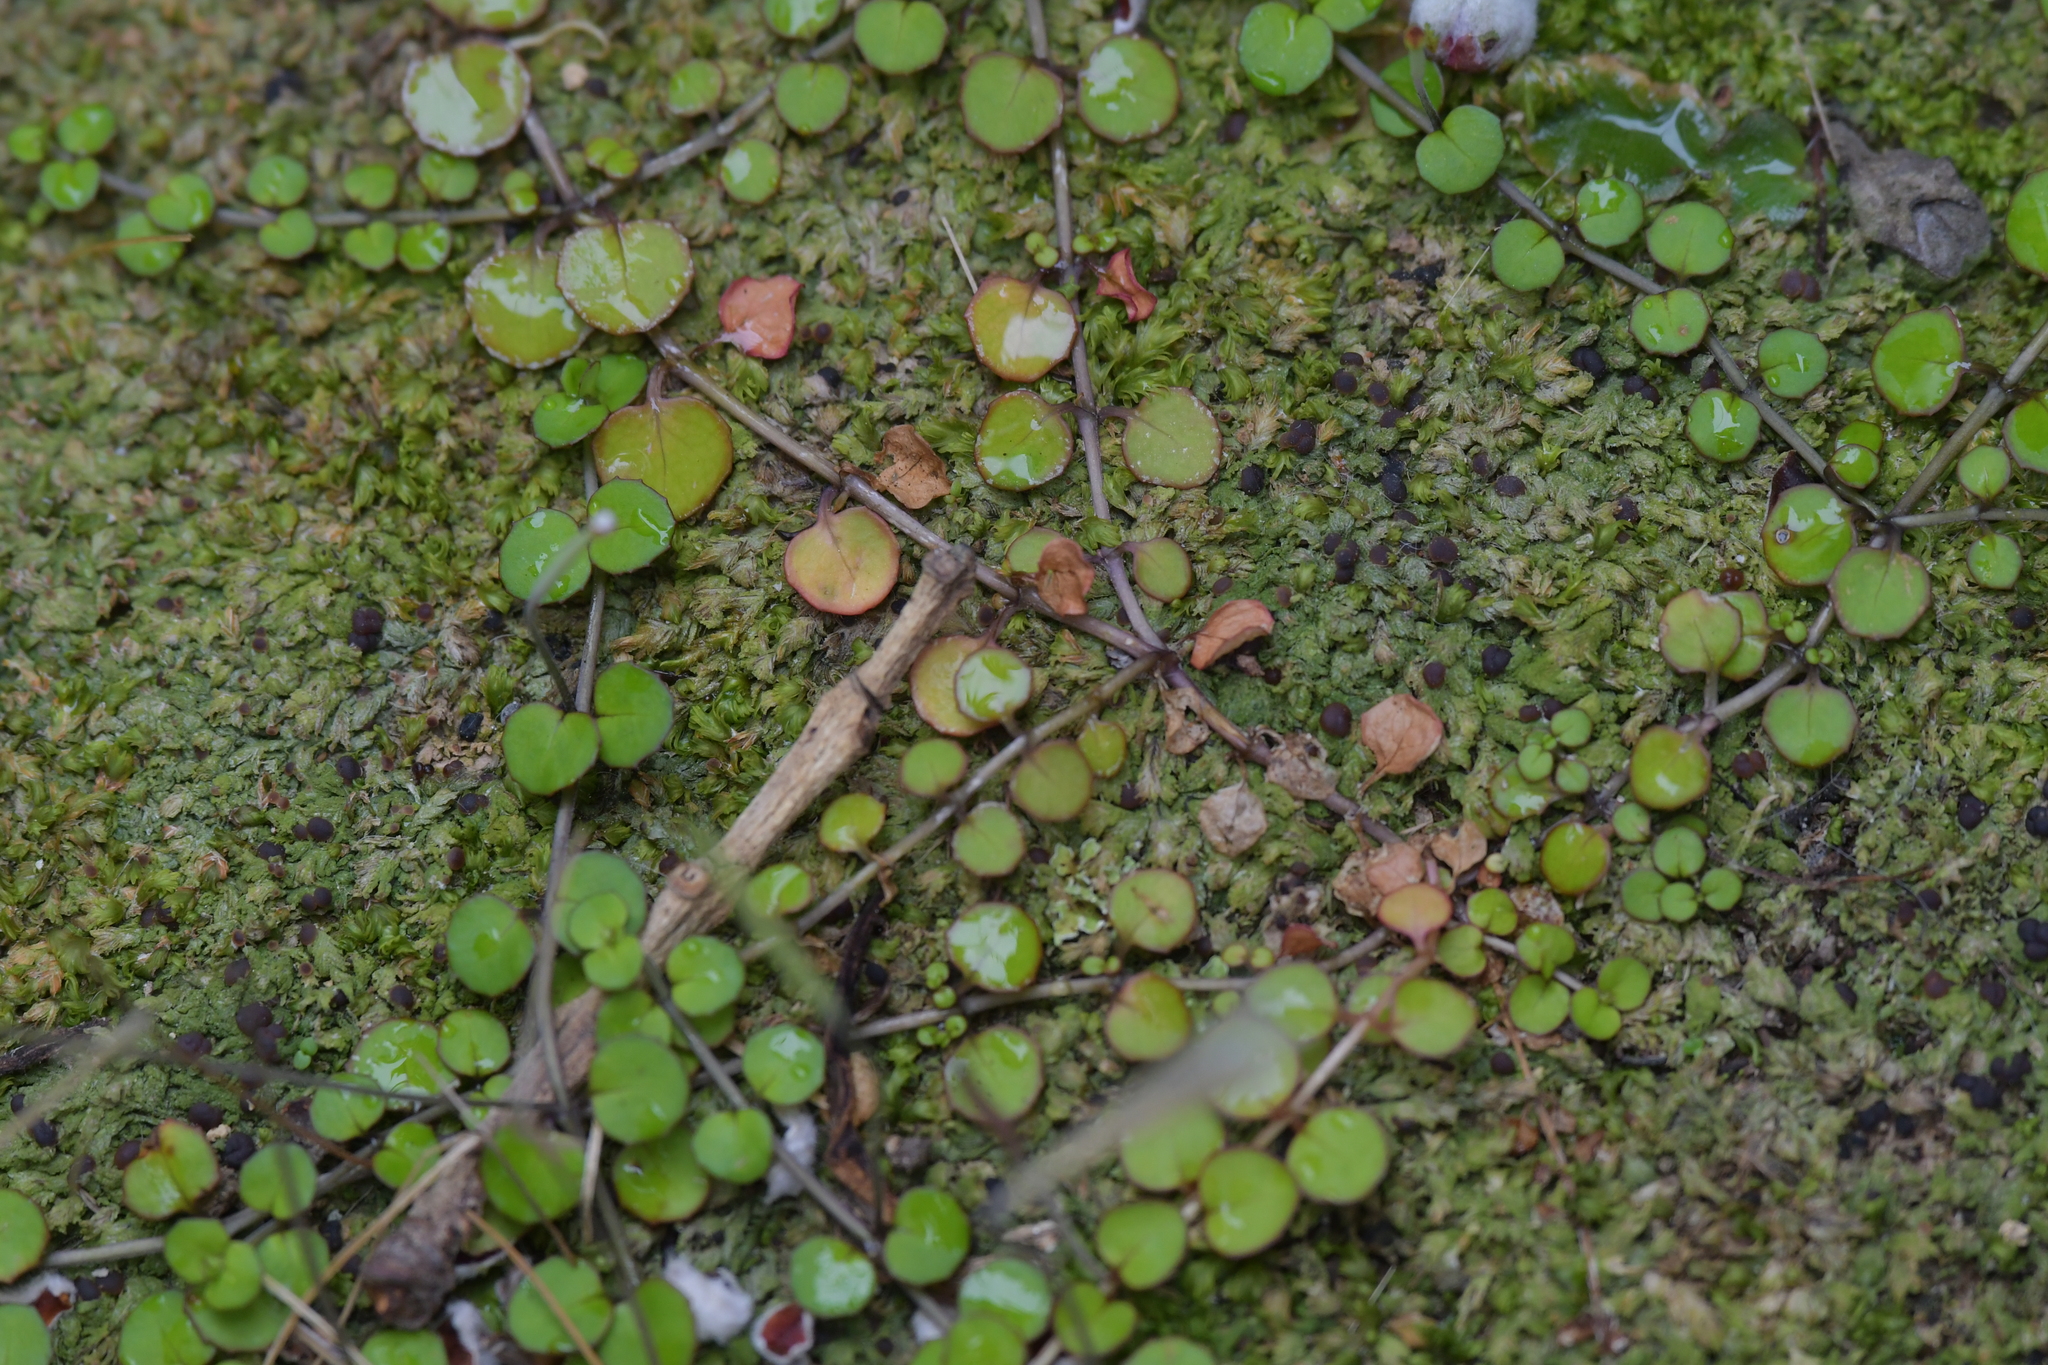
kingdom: Plantae
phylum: Tracheophyta
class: Magnoliopsida
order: Myrtales
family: Onagraceae
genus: Epilobium
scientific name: Epilobium nummularifolium
